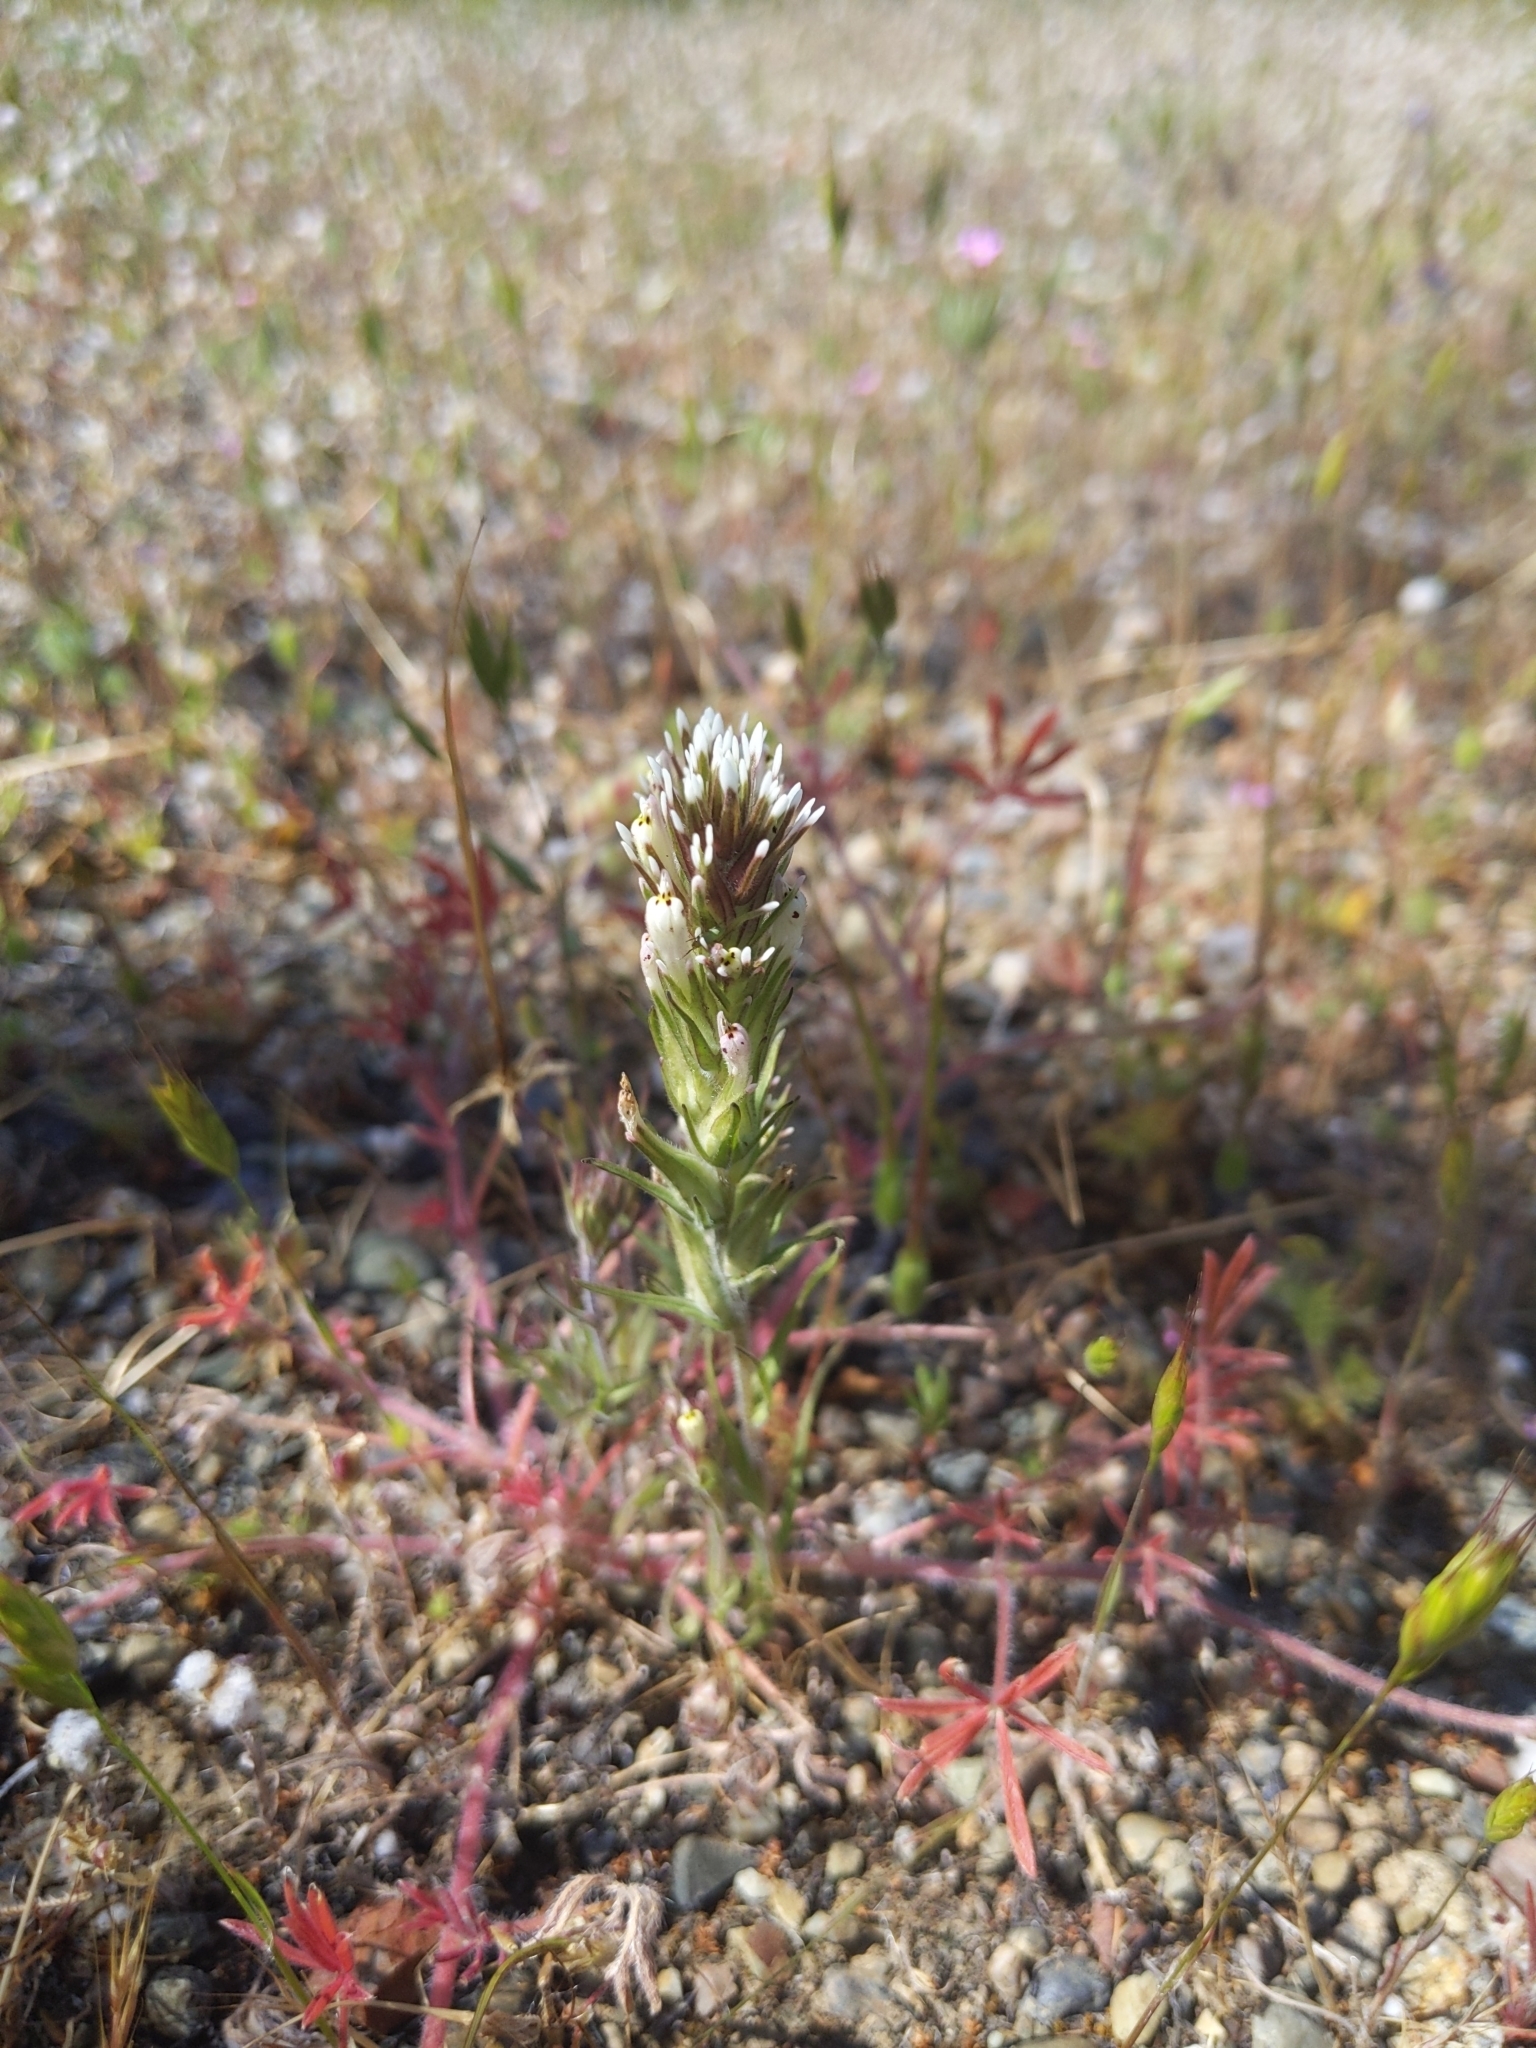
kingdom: Plantae
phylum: Tracheophyta
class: Magnoliopsida
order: Lamiales
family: Orobanchaceae
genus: Castilleja
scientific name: Castilleja attenuata
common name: Valley tassels
